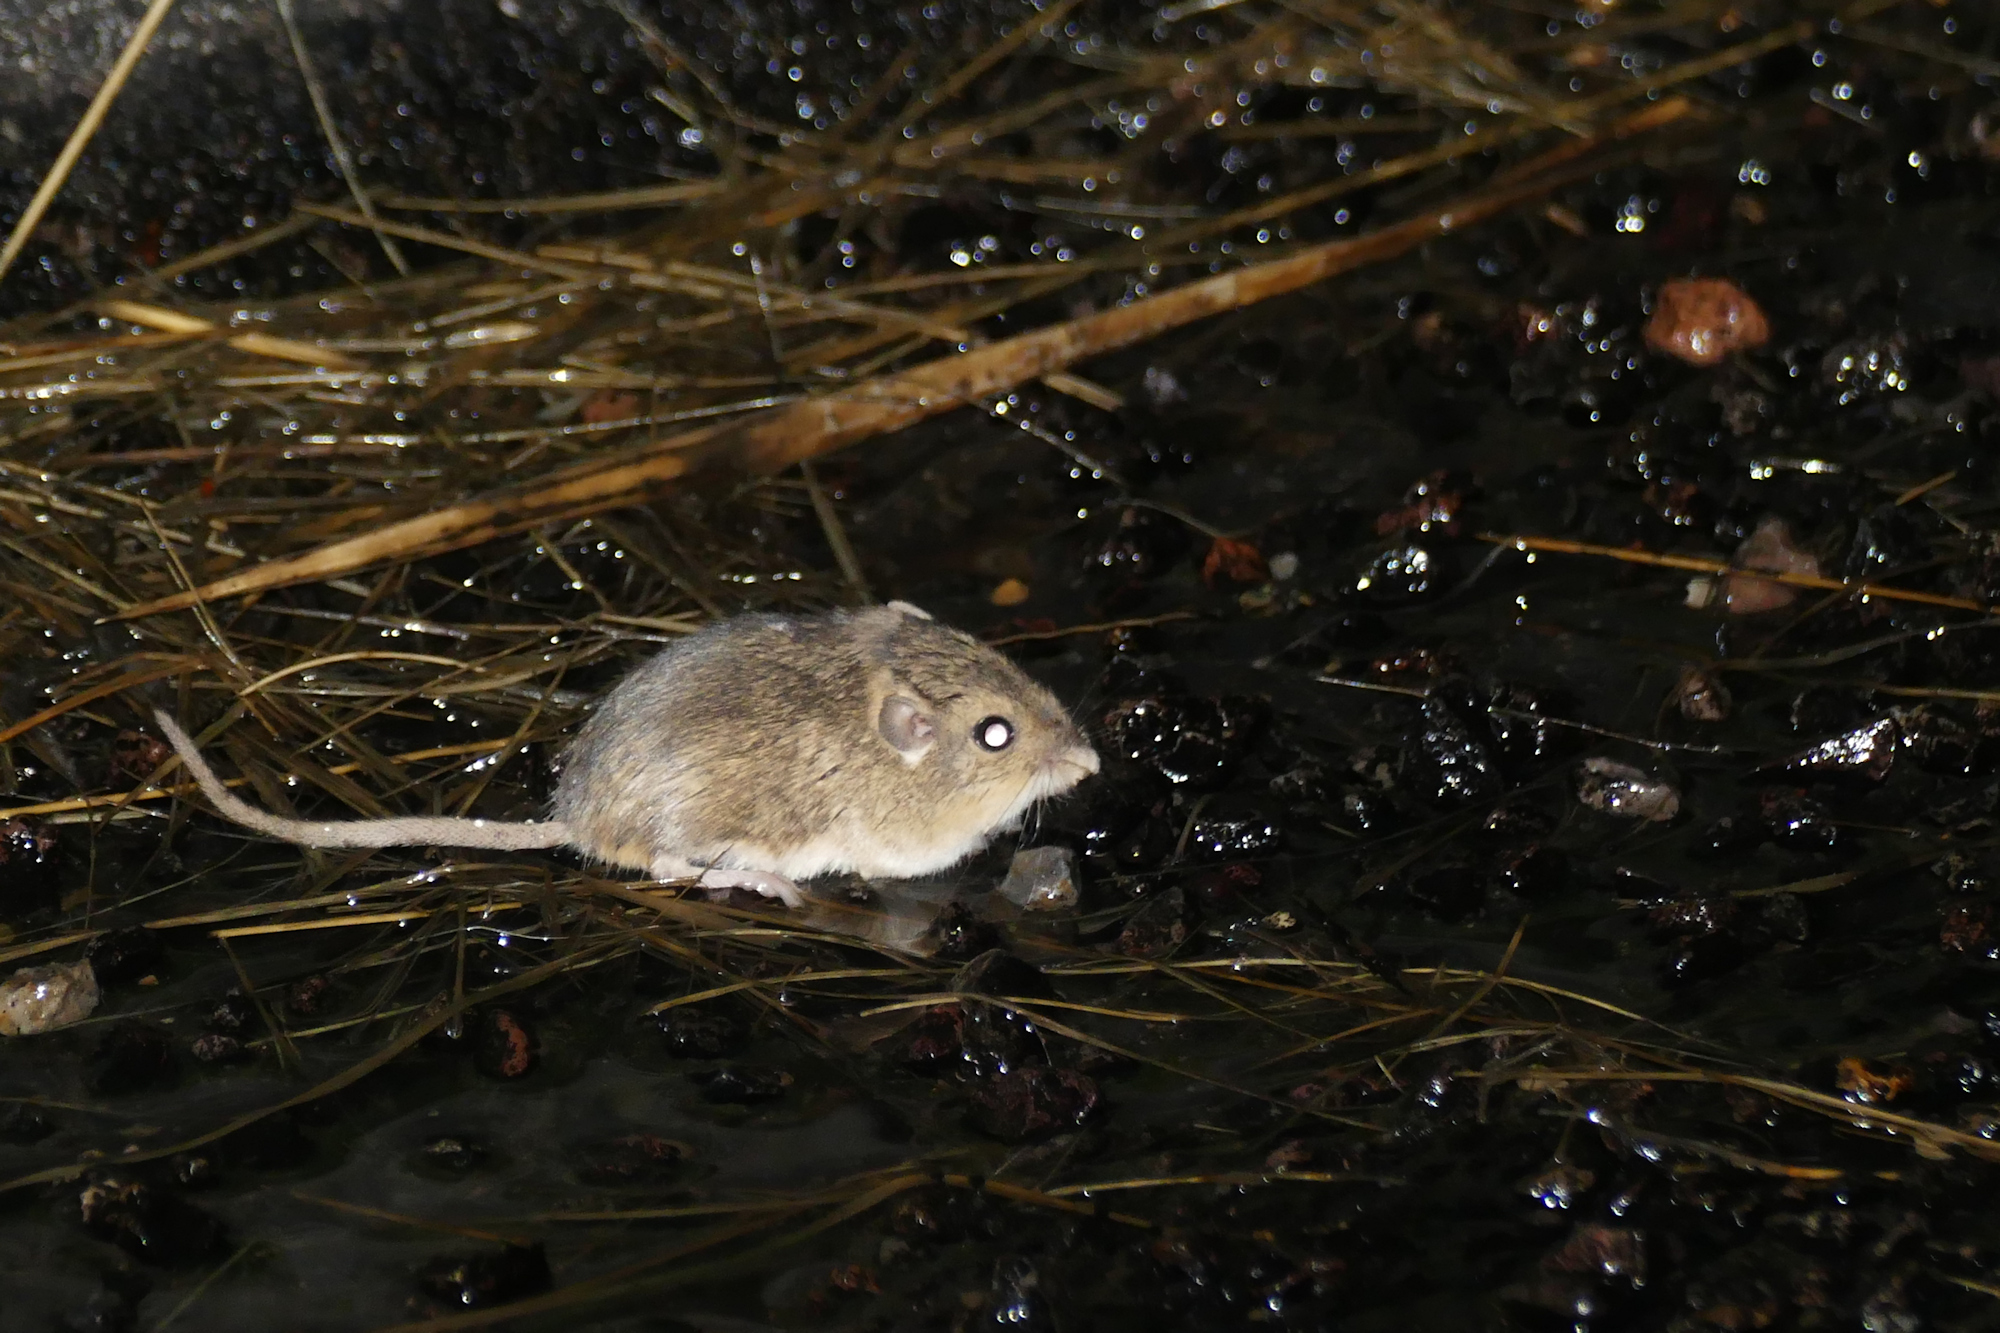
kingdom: Animalia
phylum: Chordata
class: Mammalia
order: Rodentia
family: Heteromyidae
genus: Perognathus
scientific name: Perognathus flavus
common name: Silky pocket mouse
